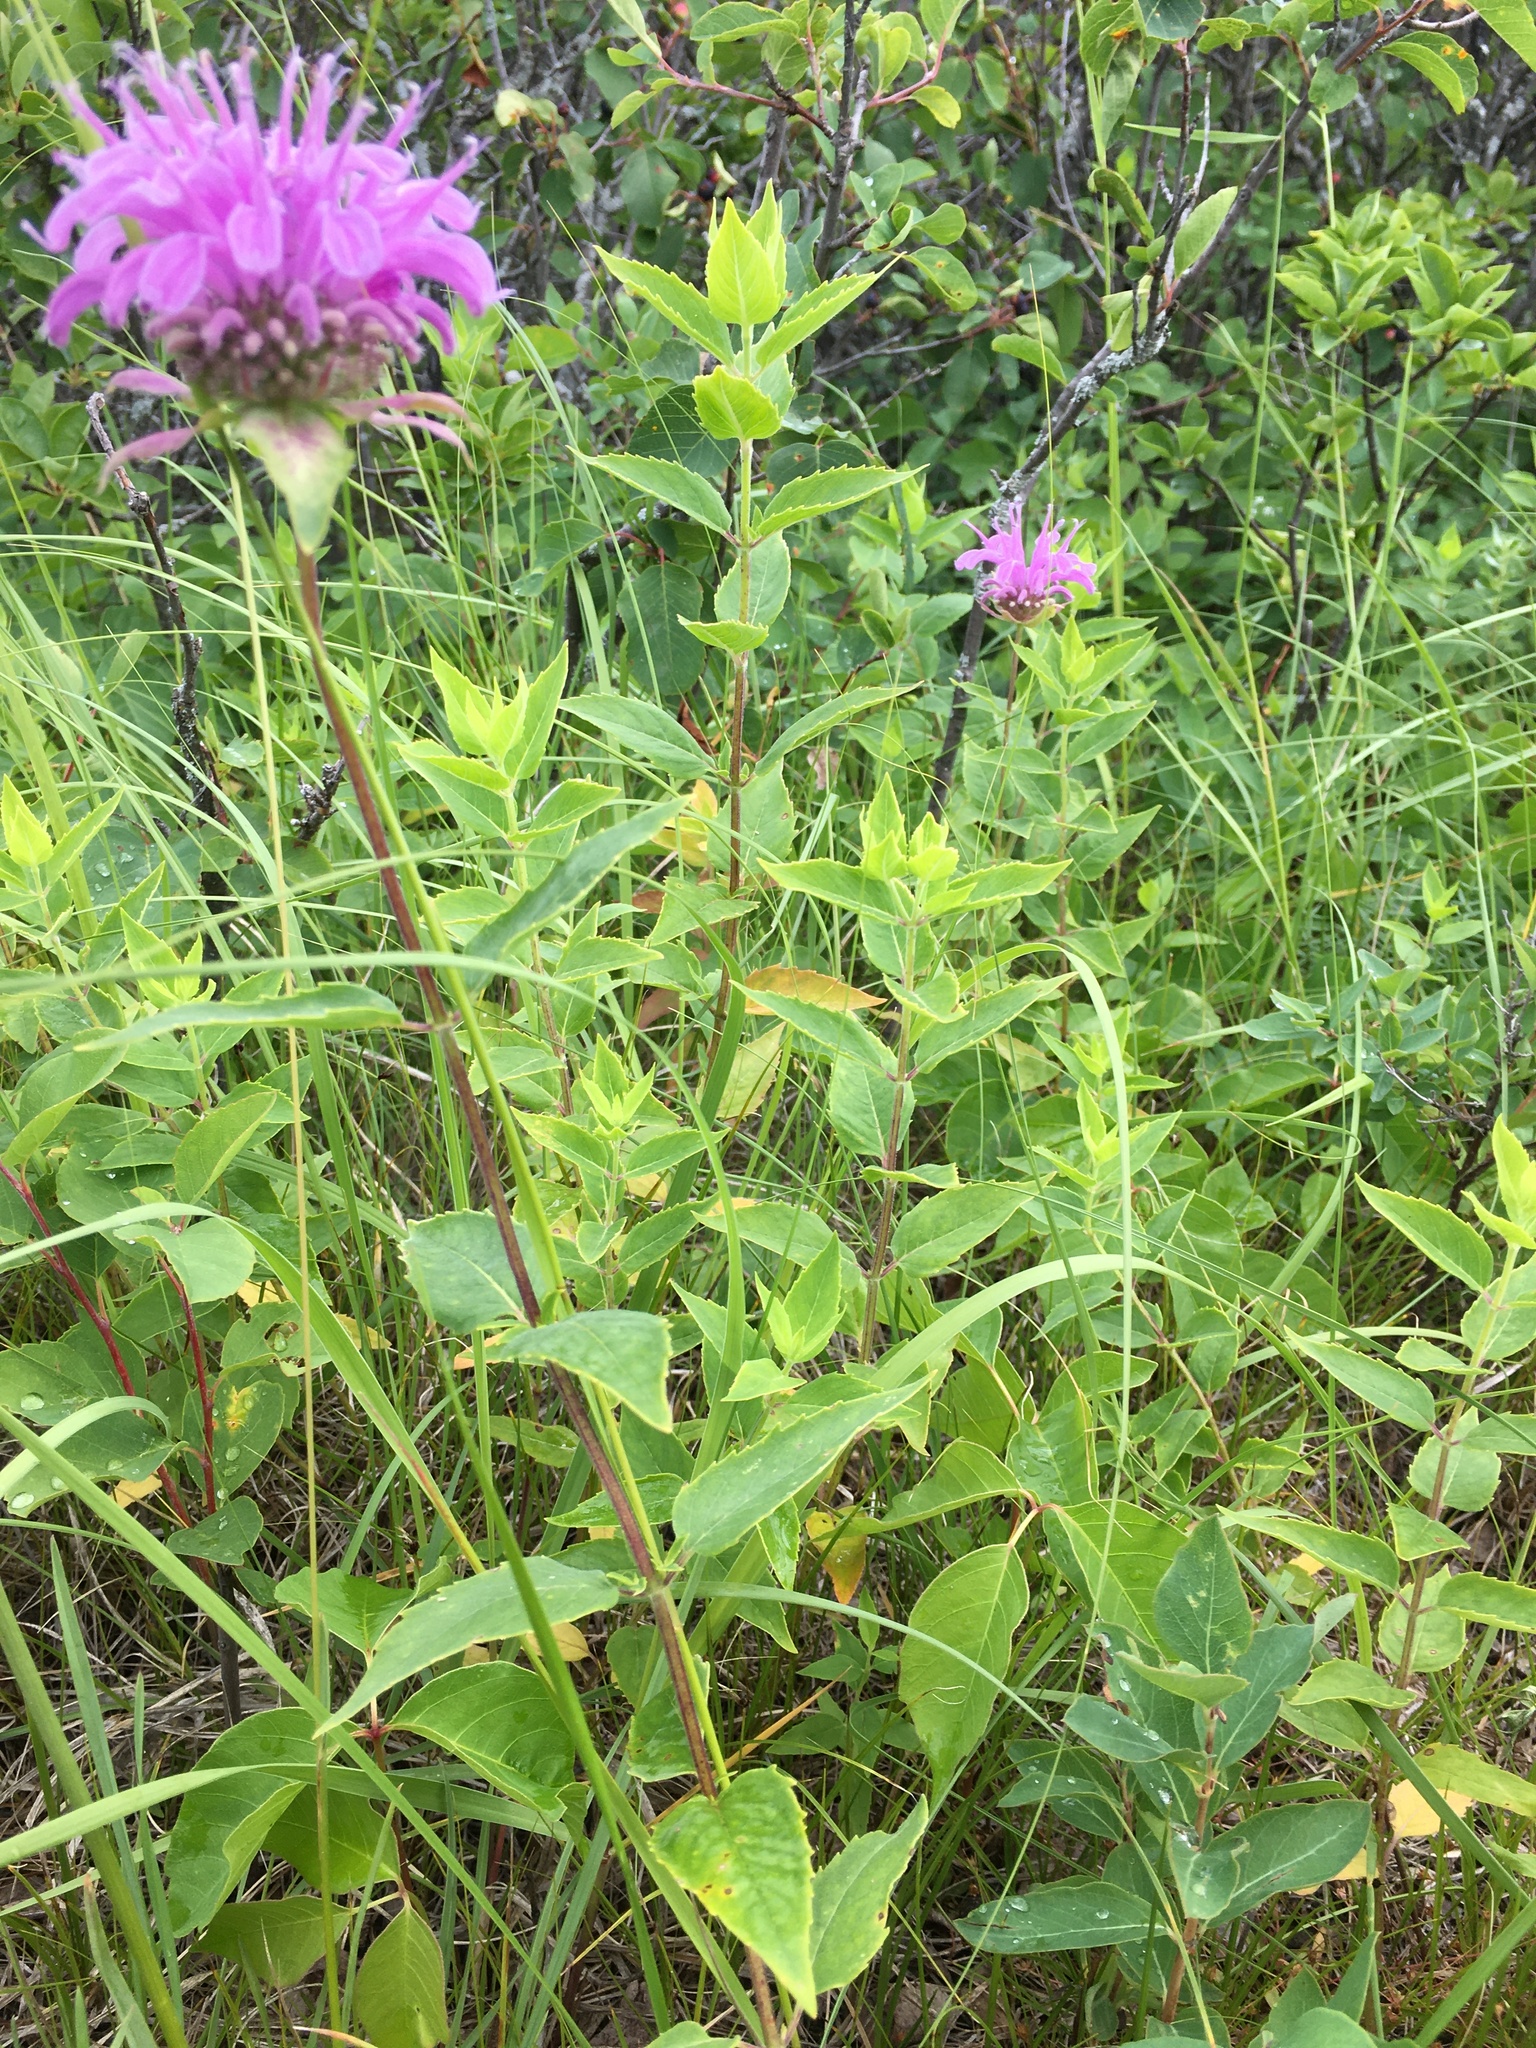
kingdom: Plantae
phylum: Tracheophyta
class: Magnoliopsida
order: Lamiales
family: Lamiaceae
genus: Monarda
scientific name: Monarda fistulosa
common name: Purple beebalm
